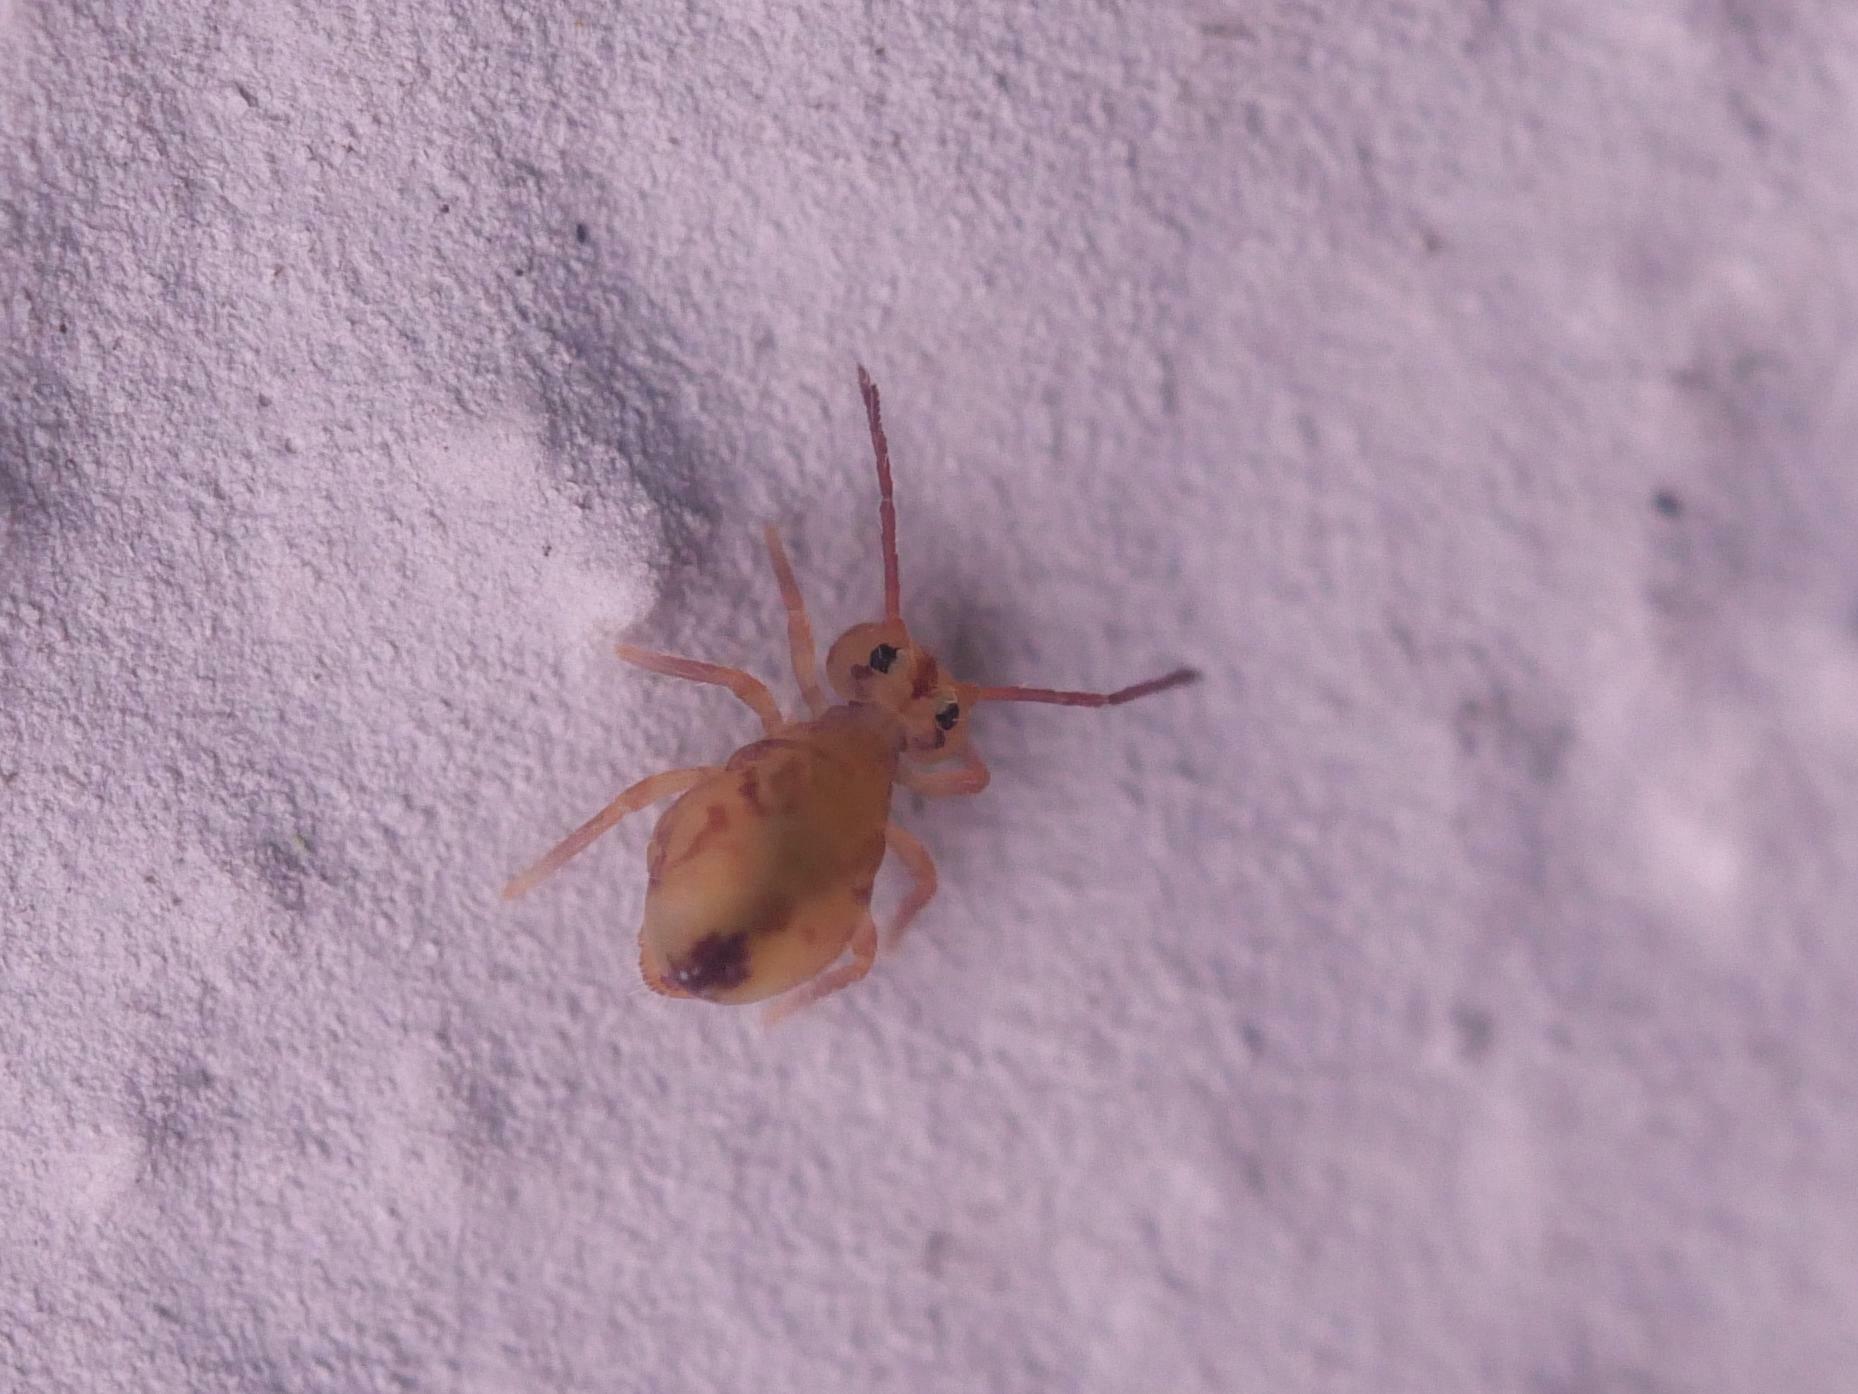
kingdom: Animalia
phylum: Arthropoda
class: Collembola
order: Symphypleona
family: Dicyrtomidae
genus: Dicyrtomina
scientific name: Dicyrtomina ornata
